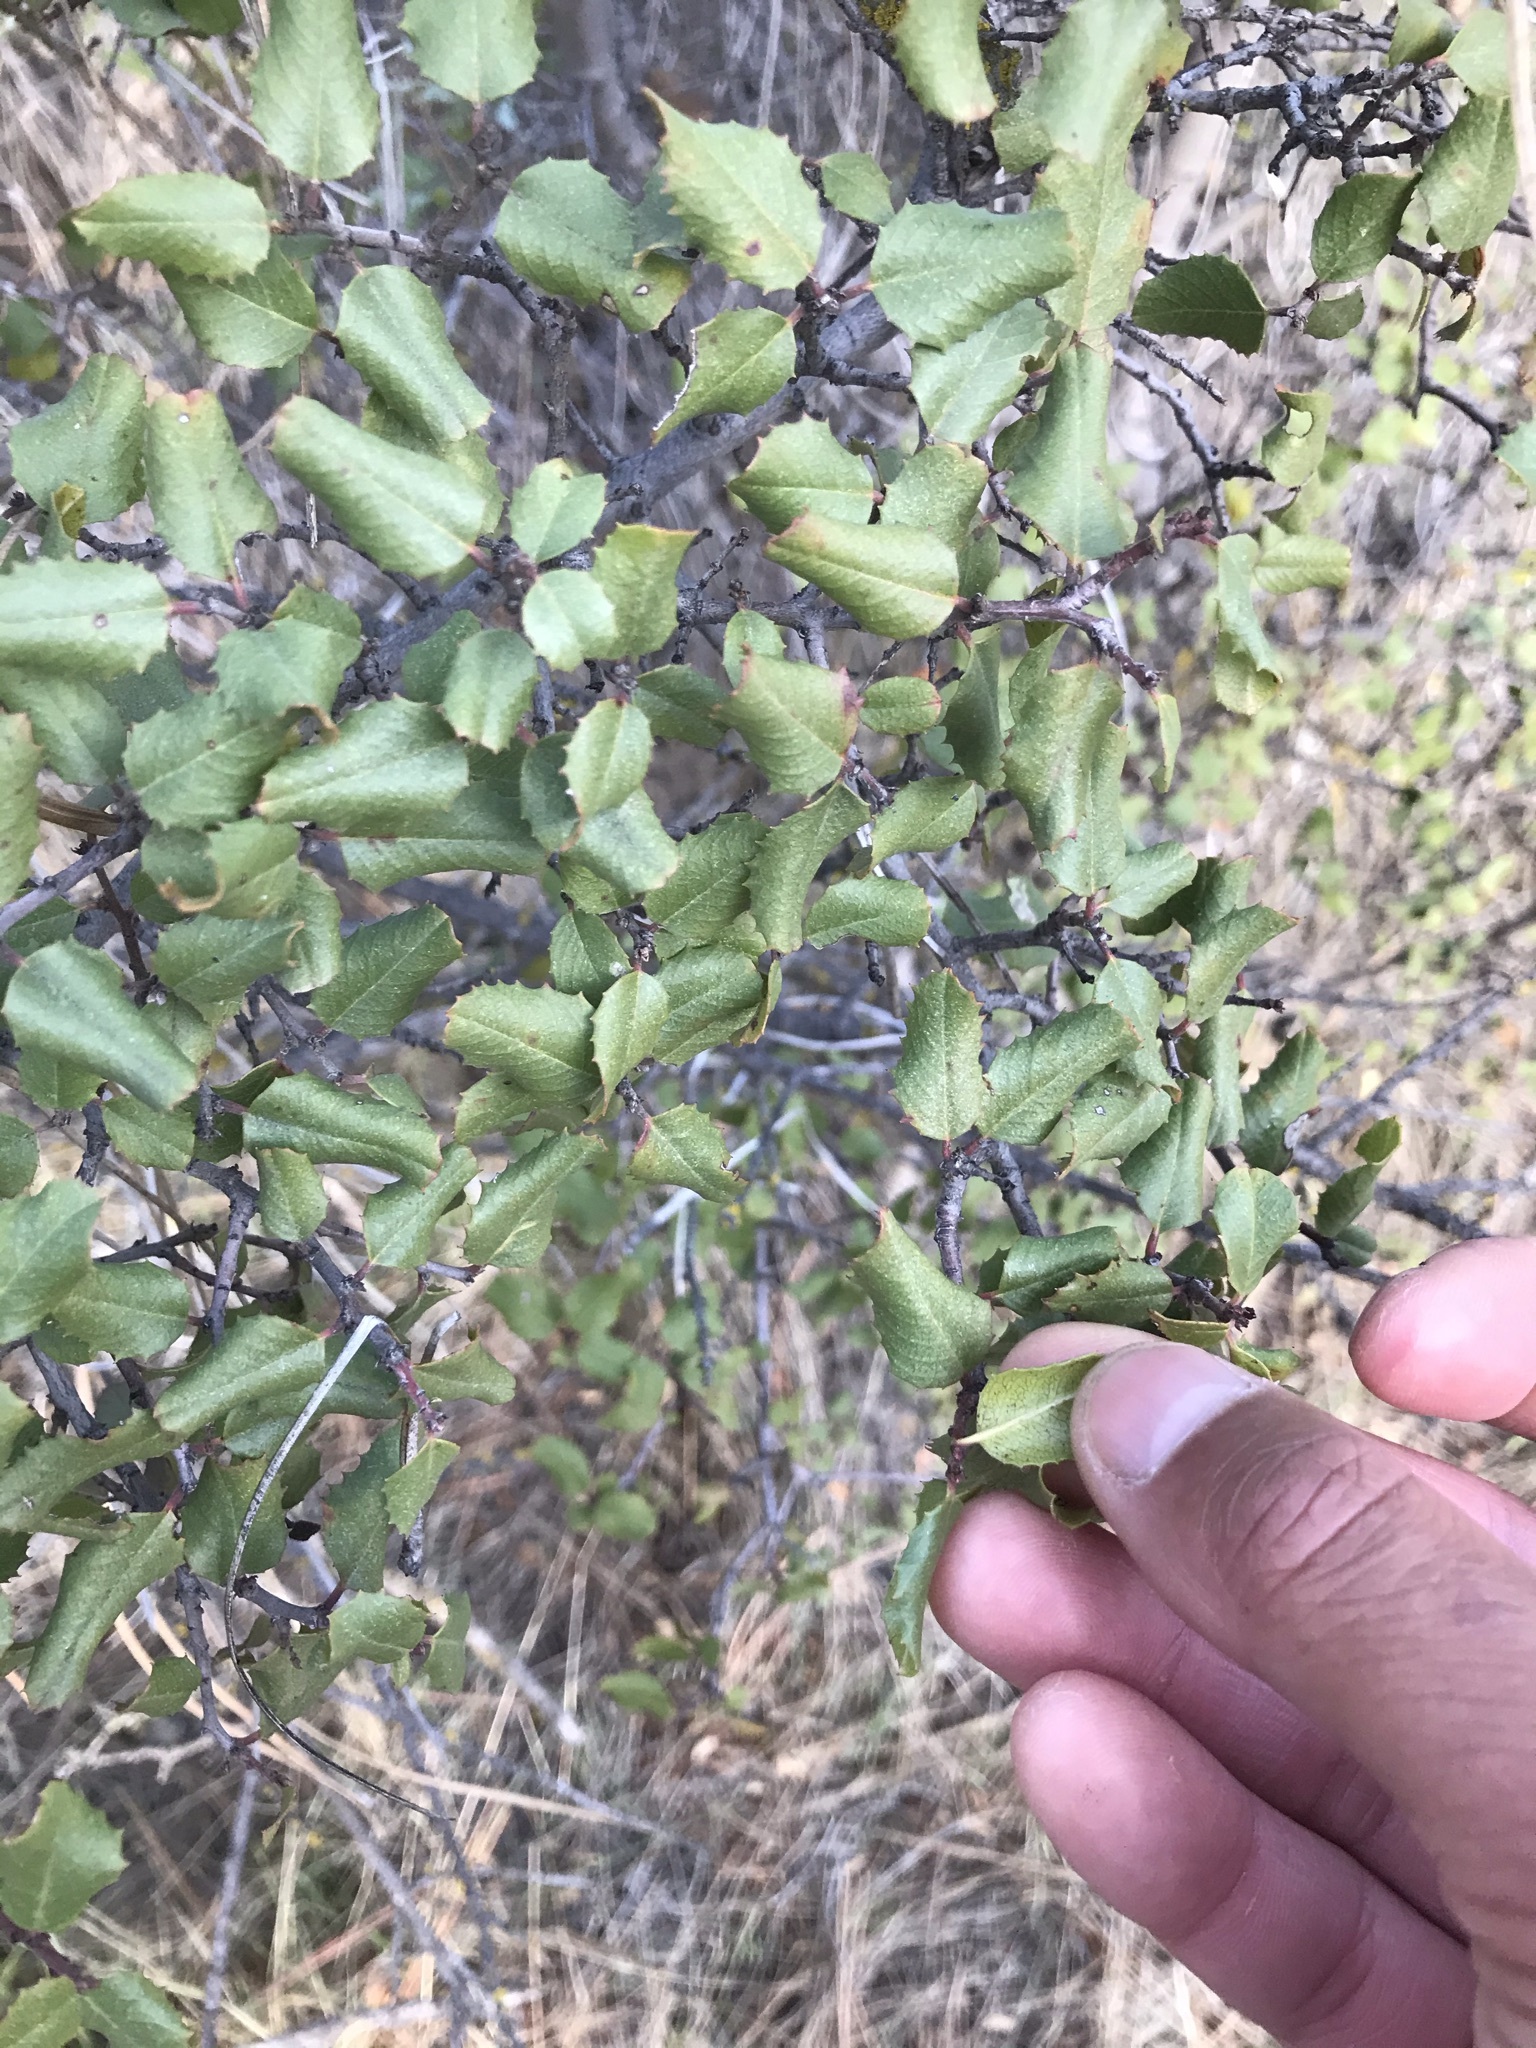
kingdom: Plantae
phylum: Tracheophyta
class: Magnoliopsida
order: Rosales
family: Rhamnaceae
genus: Endotropis
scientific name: Endotropis crocea
